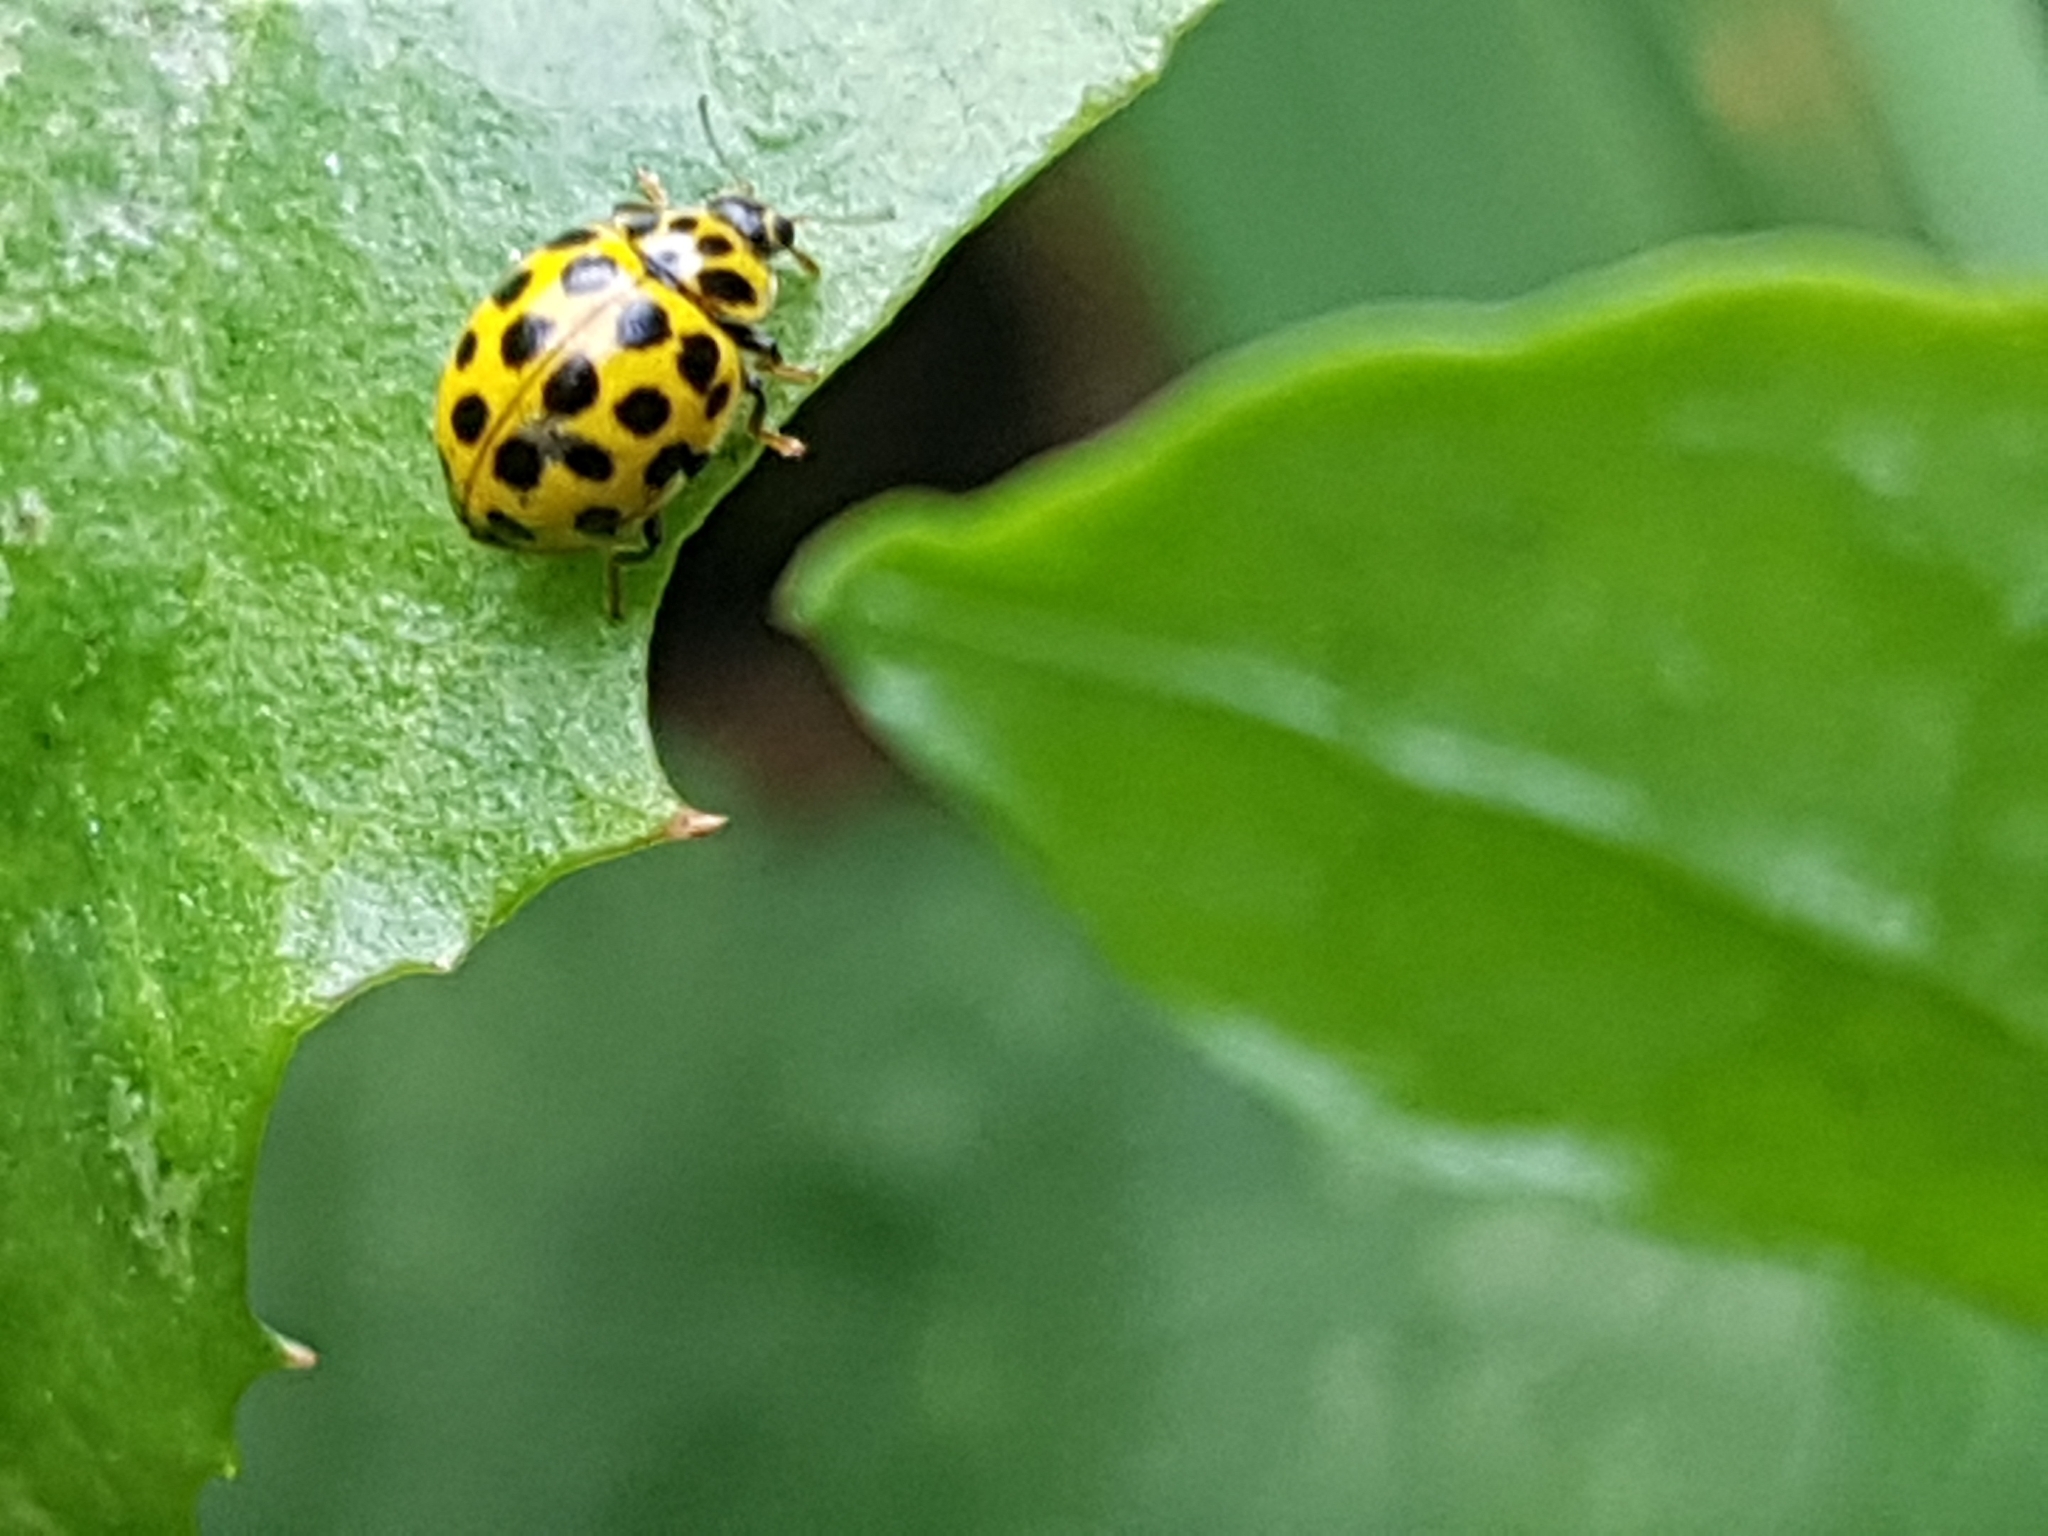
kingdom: Animalia
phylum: Arthropoda
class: Insecta
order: Coleoptera
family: Coccinellidae
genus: Psyllobora
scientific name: Psyllobora vigintiduopunctata
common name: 22-spot ladybird
